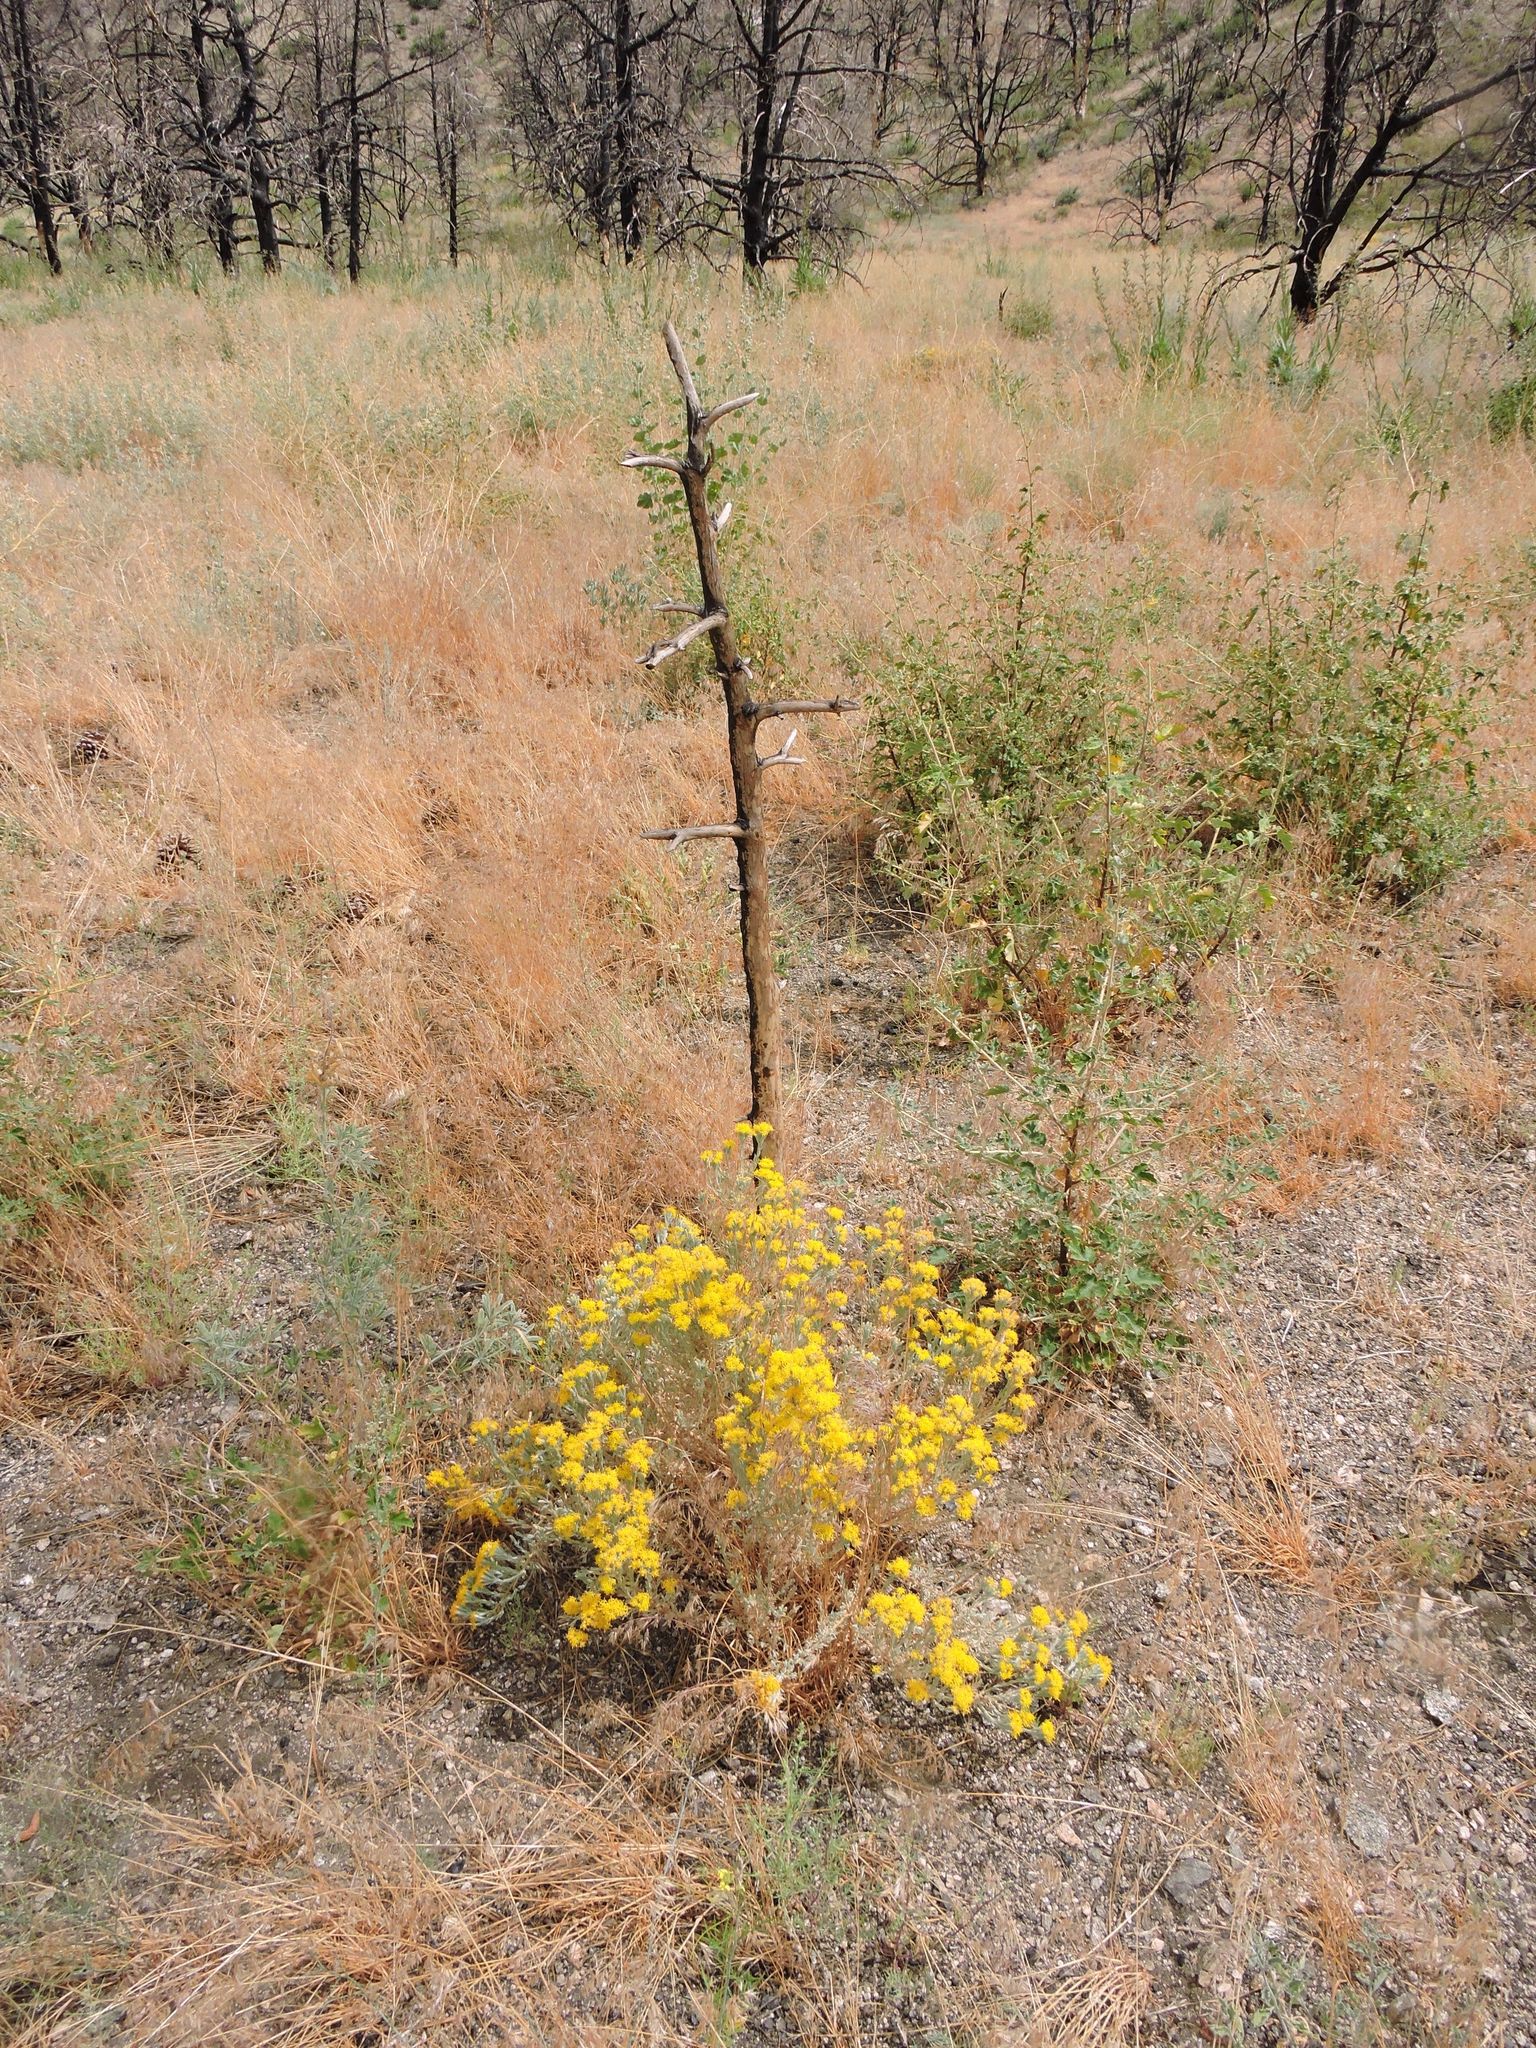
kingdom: Plantae
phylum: Tracheophyta
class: Magnoliopsida
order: Asterales
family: Asteraceae
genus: Tetradymia
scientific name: Tetradymia canescens
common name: Spineless horsebrush
